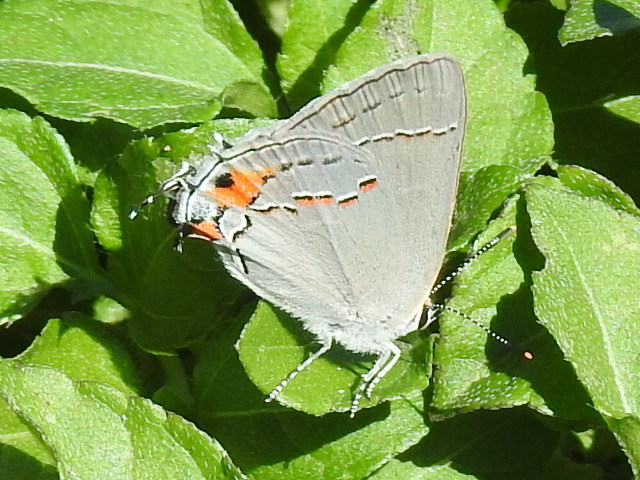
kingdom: Animalia
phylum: Arthropoda
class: Insecta
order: Lepidoptera
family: Lycaenidae
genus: Strymon
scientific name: Strymon melinus
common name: Gray hairstreak
